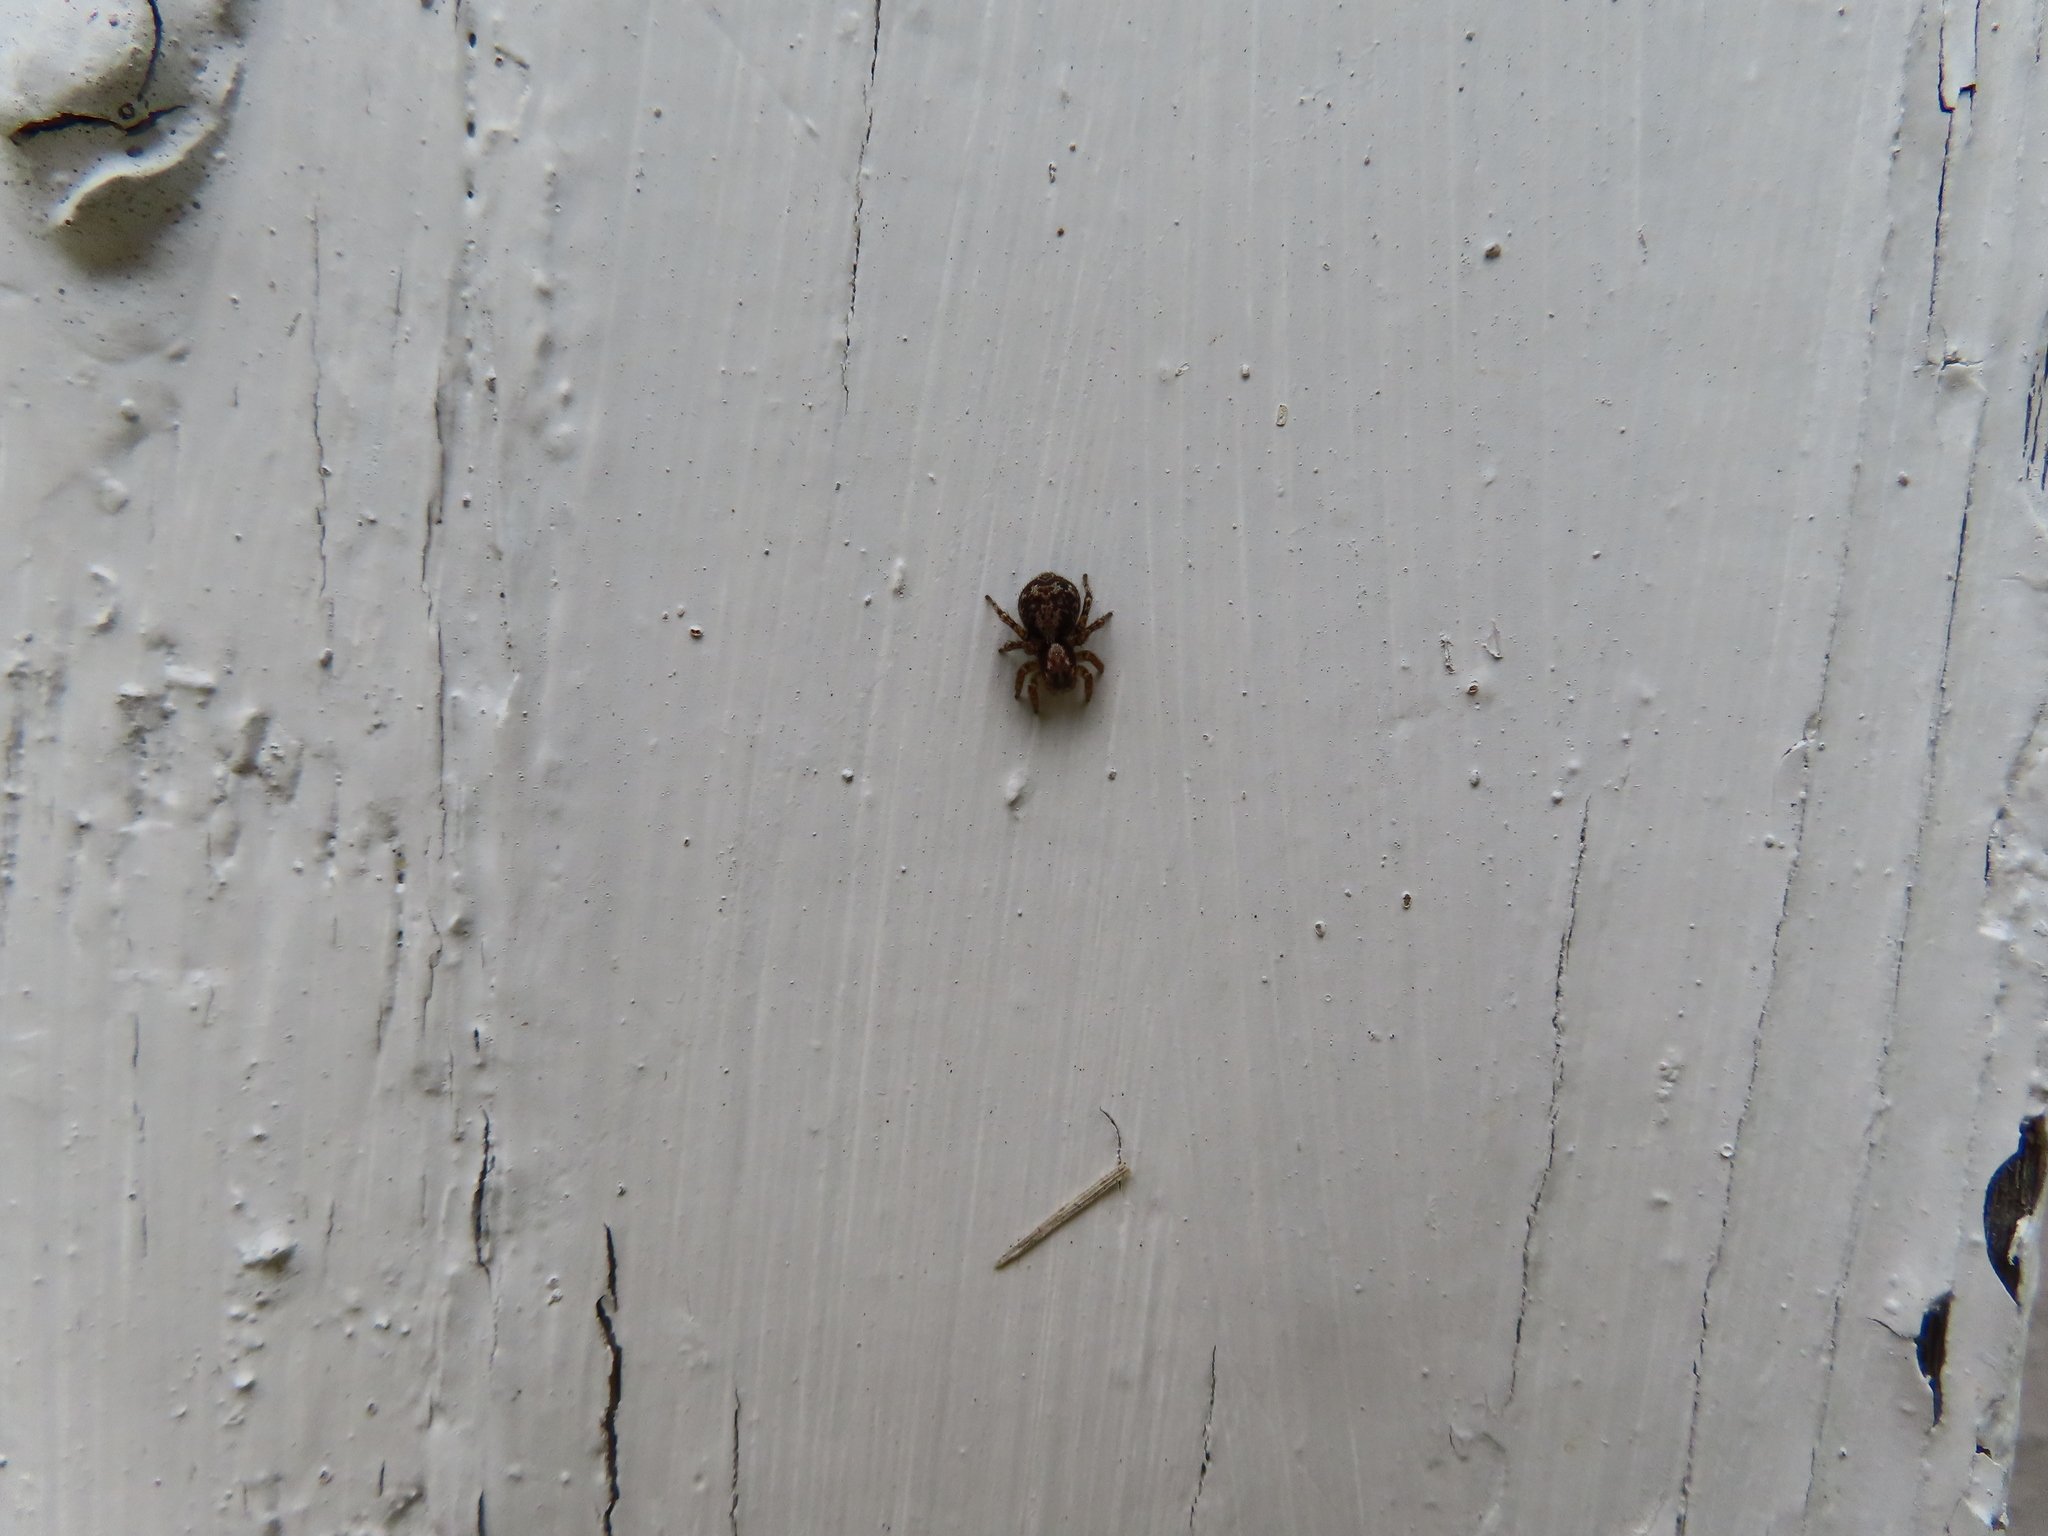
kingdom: Animalia
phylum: Arthropoda
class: Arachnida
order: Araneae
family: Salticidae
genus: Naphrys
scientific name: Naphrys pulex
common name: Flea jumping spider
